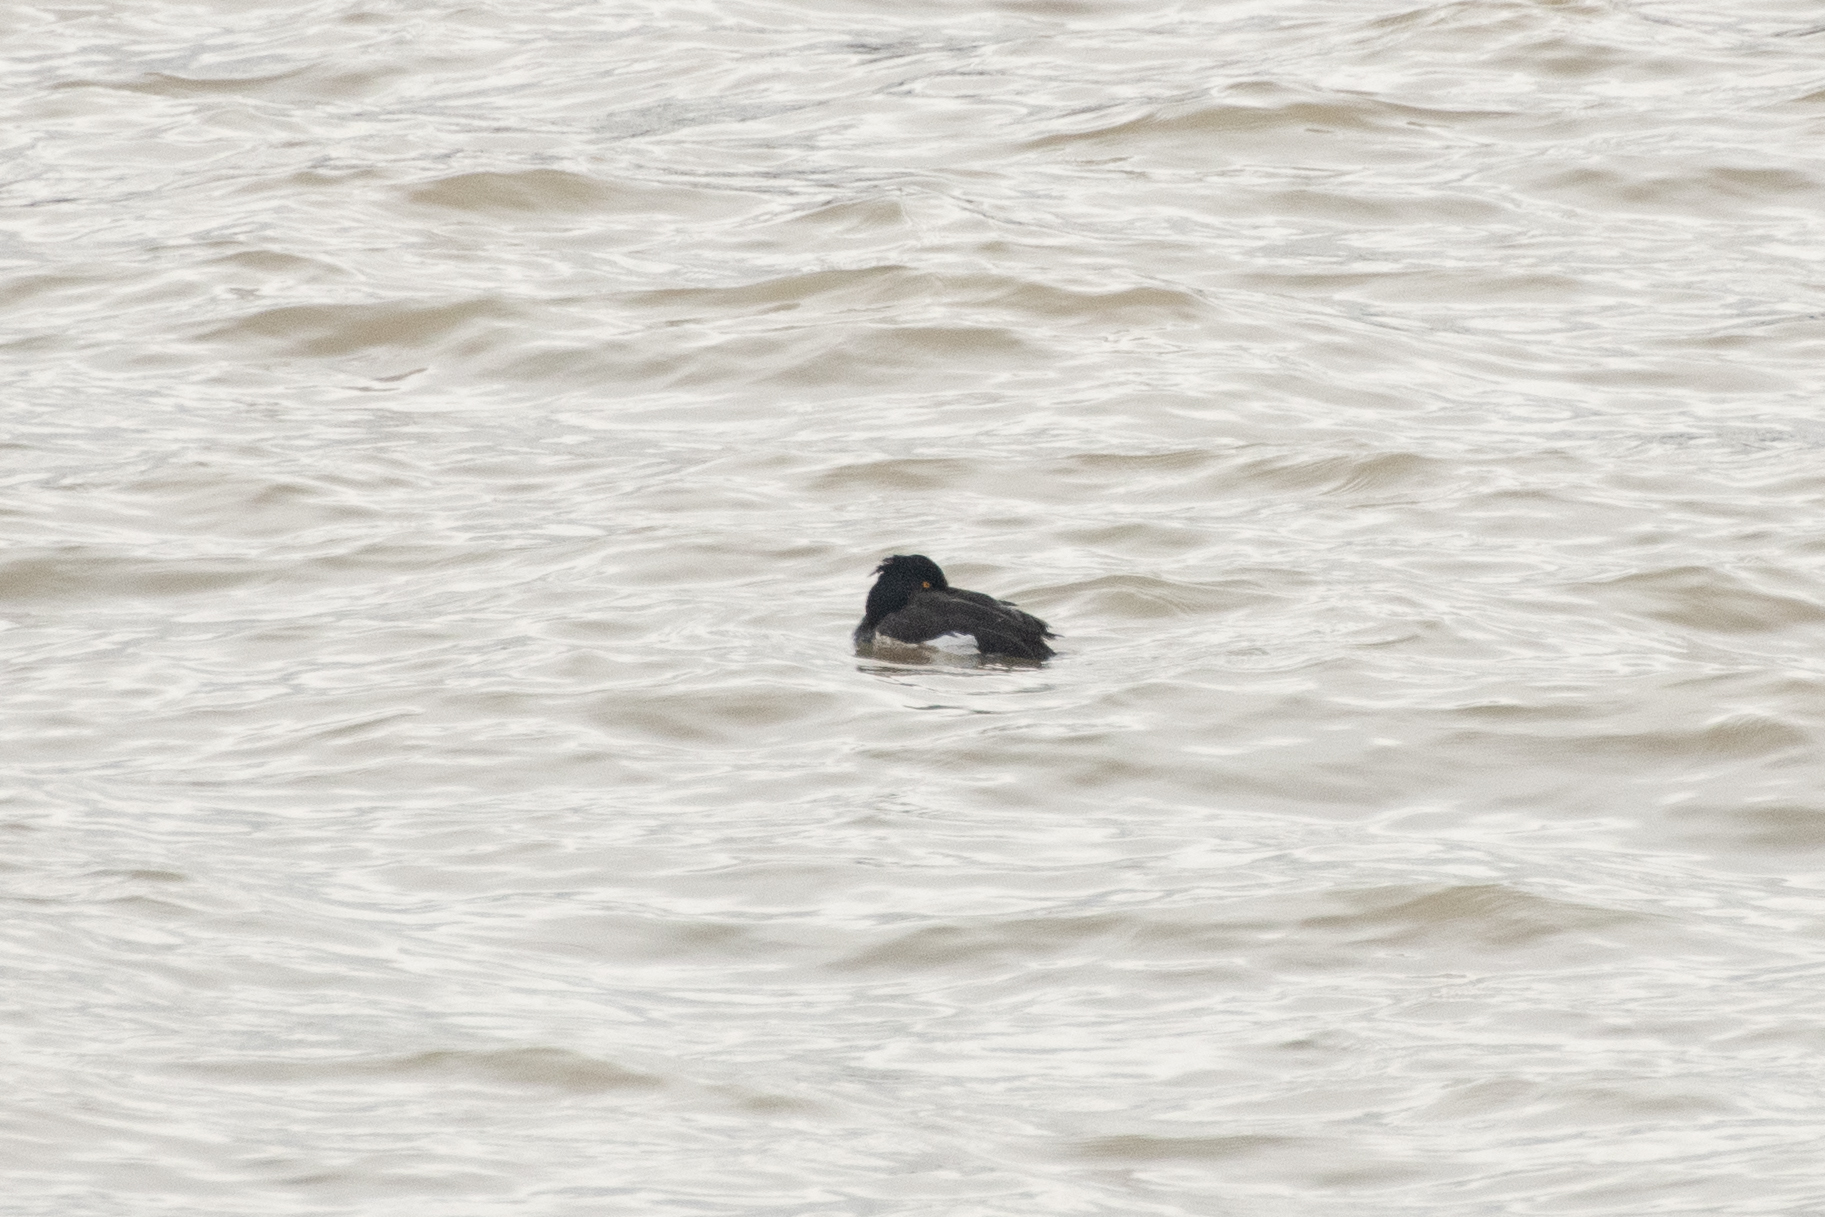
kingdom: Animalia
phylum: Chordata
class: Aves
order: Anseriformes
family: Anatidae
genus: Aythya
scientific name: Aythya fuligula
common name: Tufted duck
